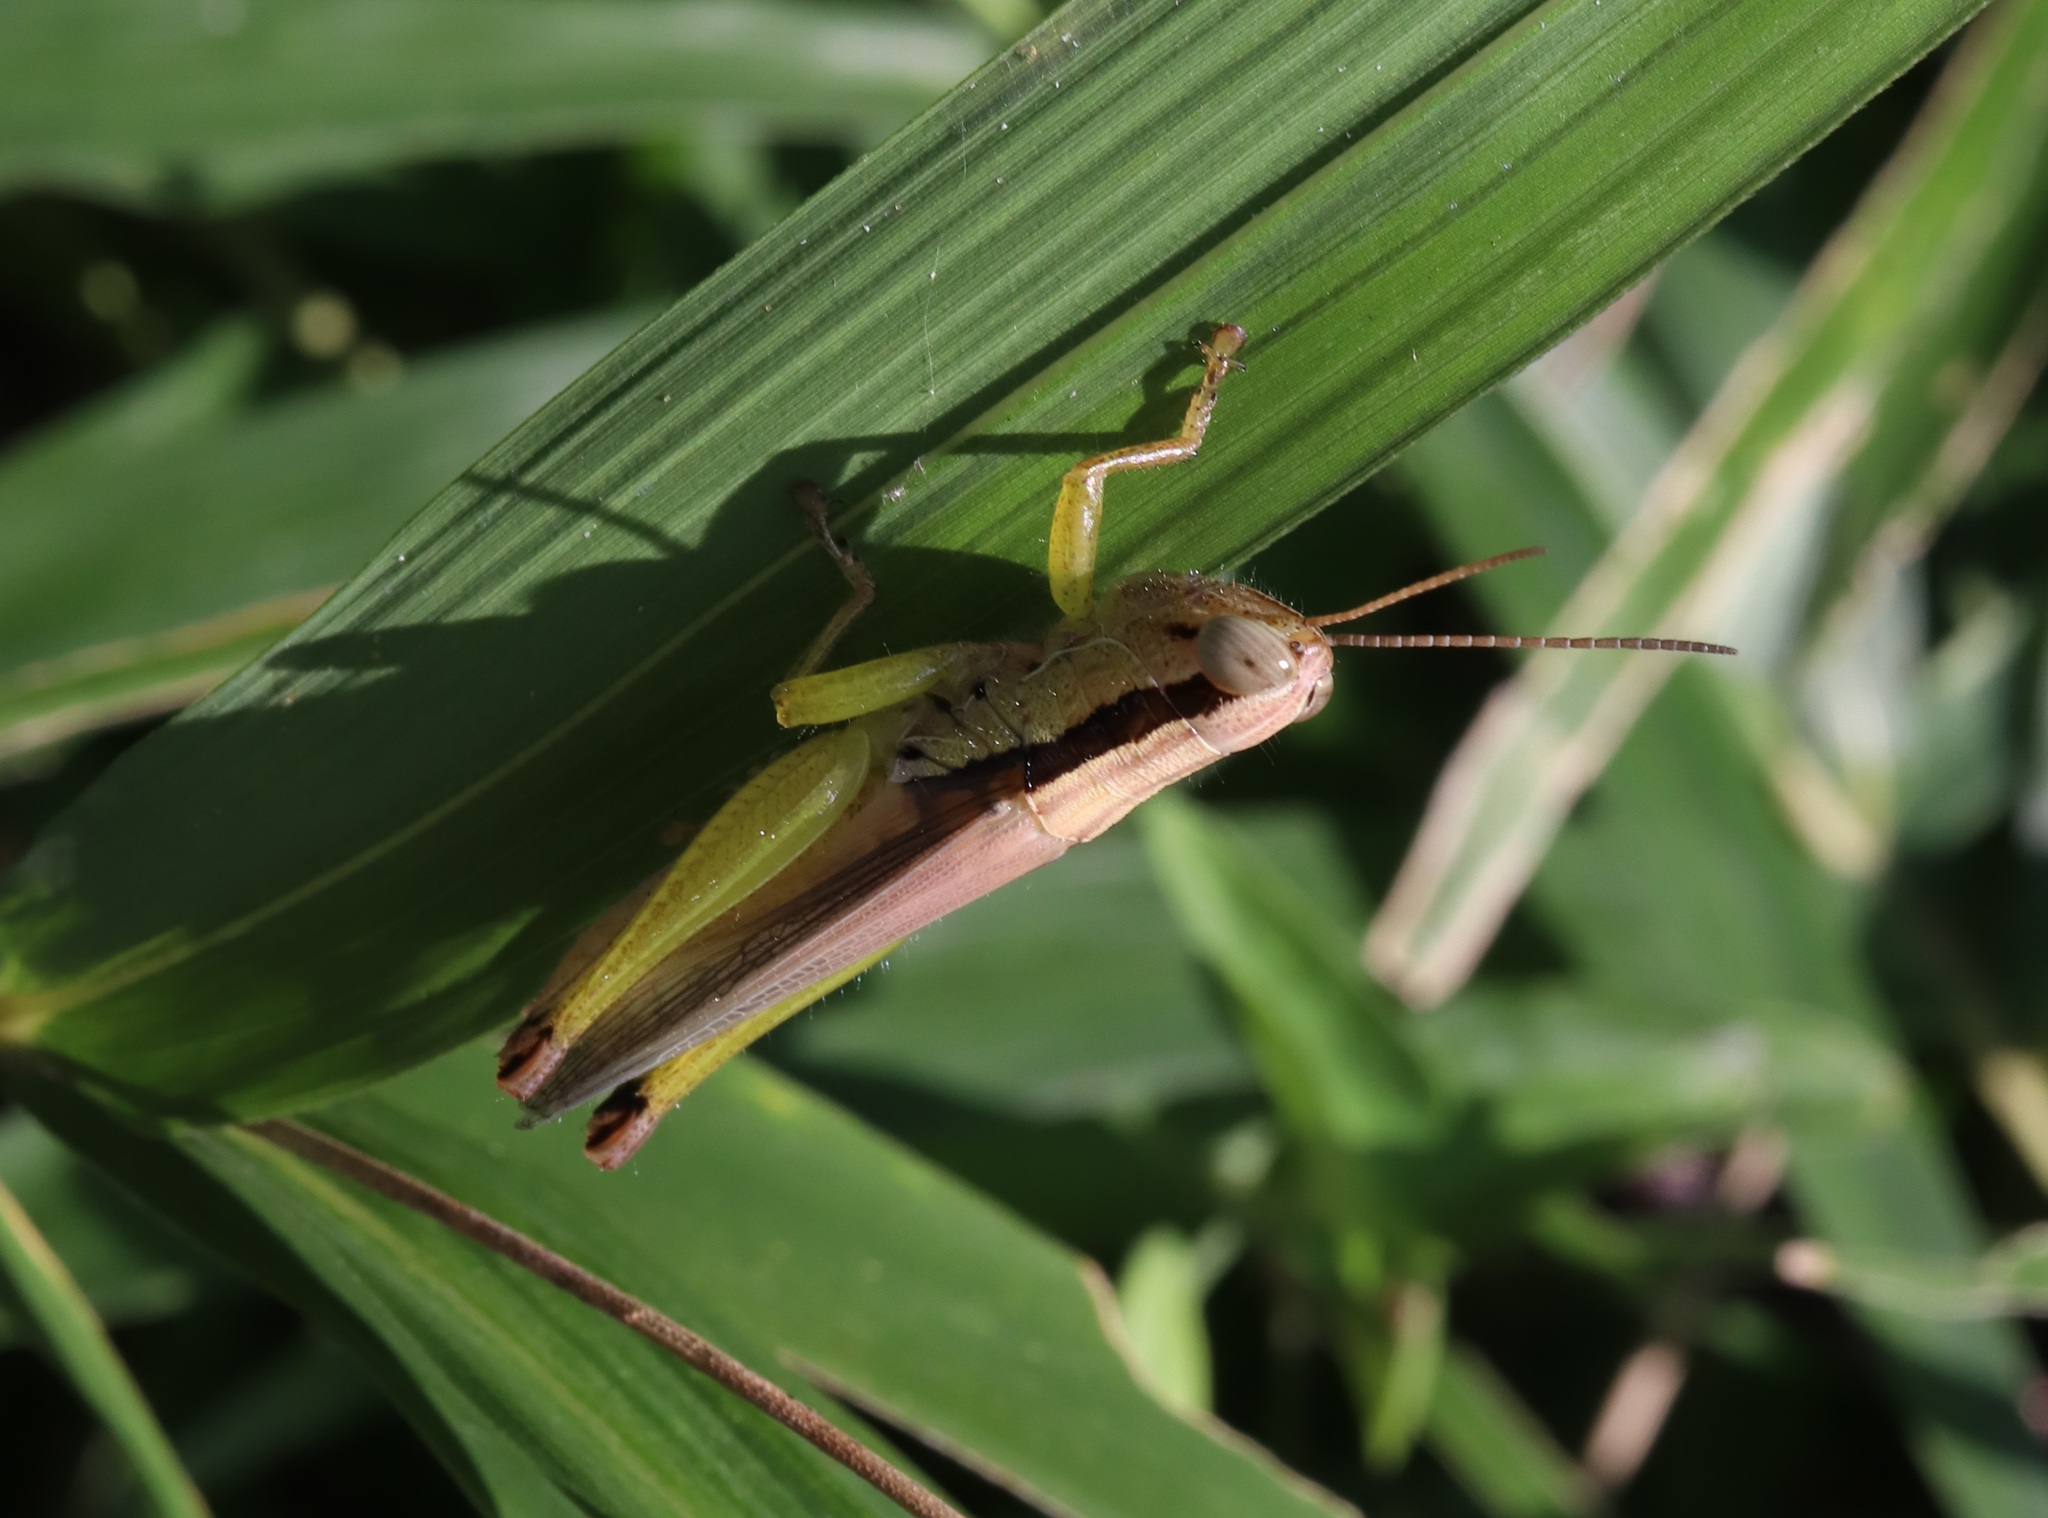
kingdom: Animalia
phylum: Arthropoda
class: Insecta
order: Orthoptera
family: Acrididae
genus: Oxya
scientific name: Oxya yezoensis
